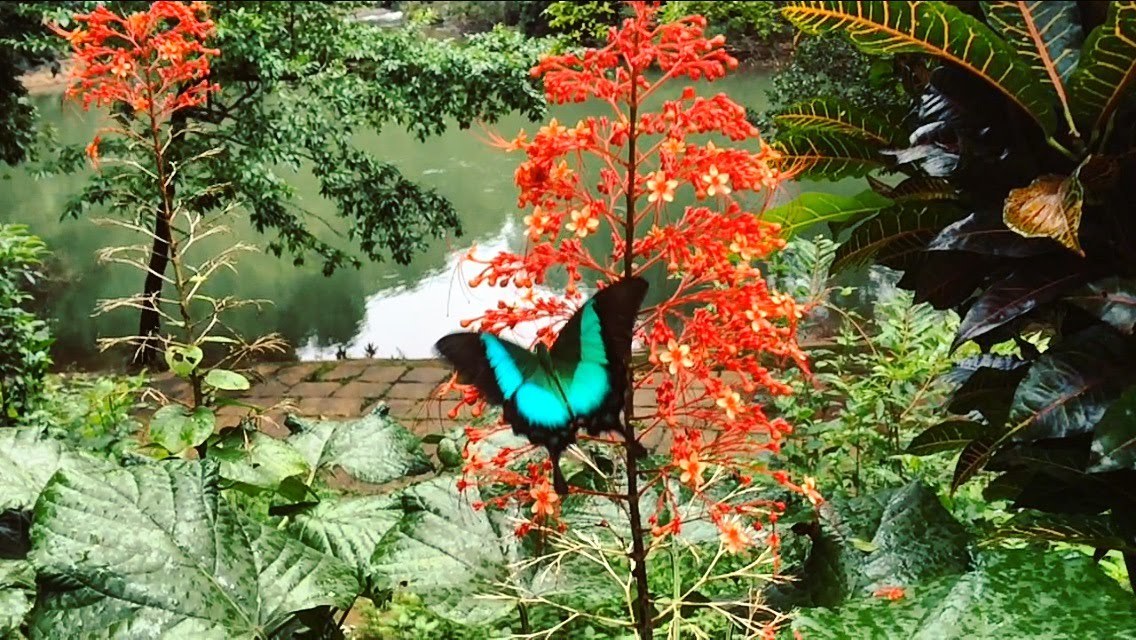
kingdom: Animalia
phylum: Arthropoda
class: Insecta
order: Lepidoptera
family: Papilionidae
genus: Papilio
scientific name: Papilio buddha
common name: Malabar banded peacock
